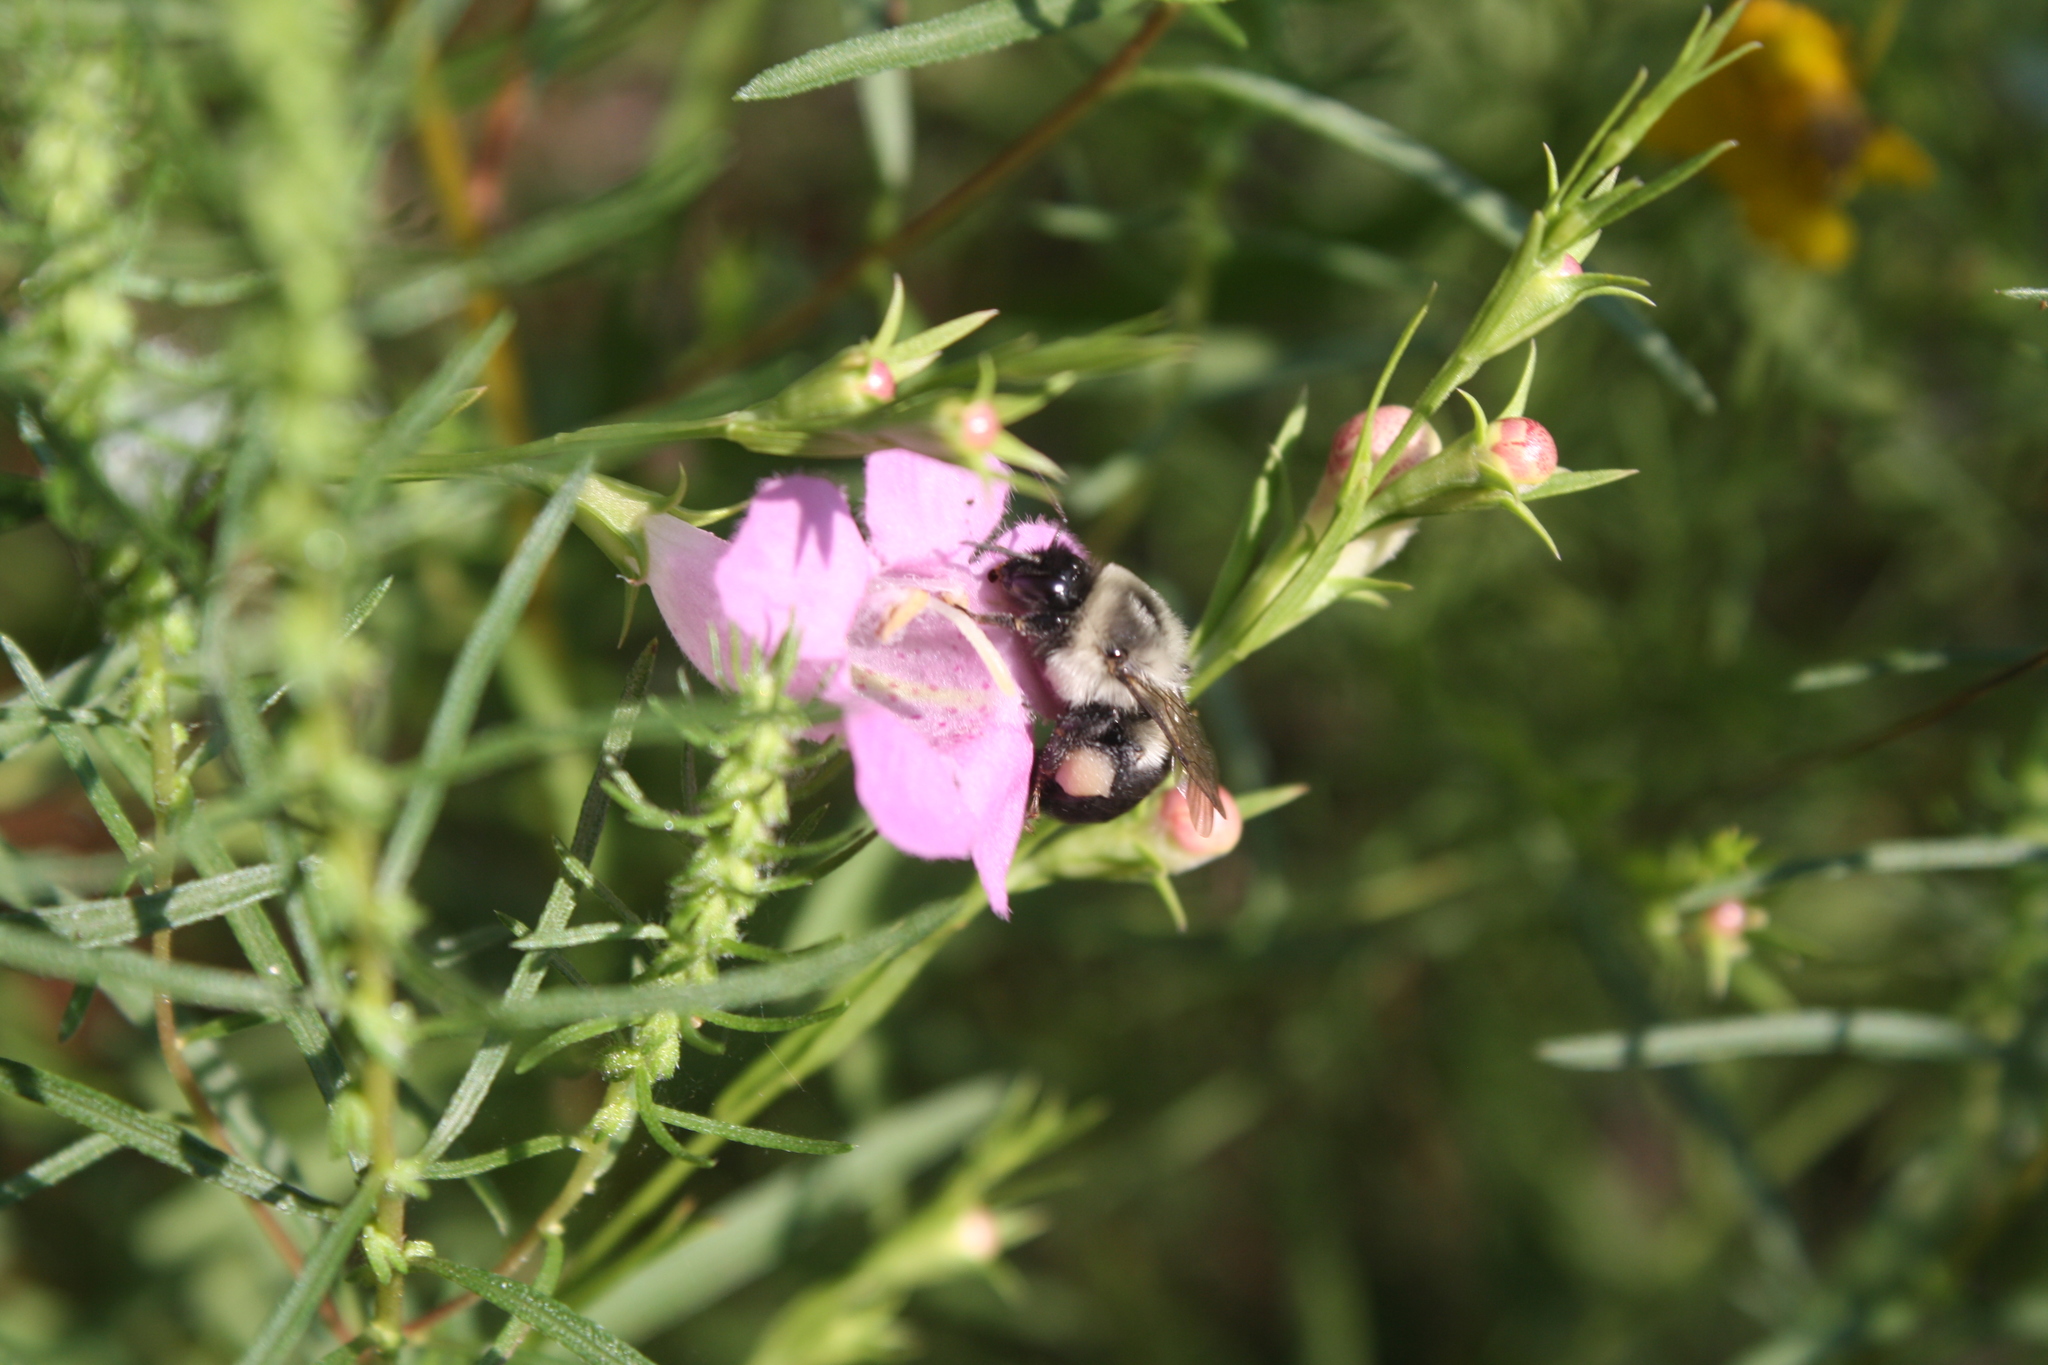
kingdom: Plantae
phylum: Tracheophyta
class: Magnoliopsida
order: Lamiales
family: Orobanchaceae
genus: Agalinis
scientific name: Agalinis heterophylla
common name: Prairie agalinis
